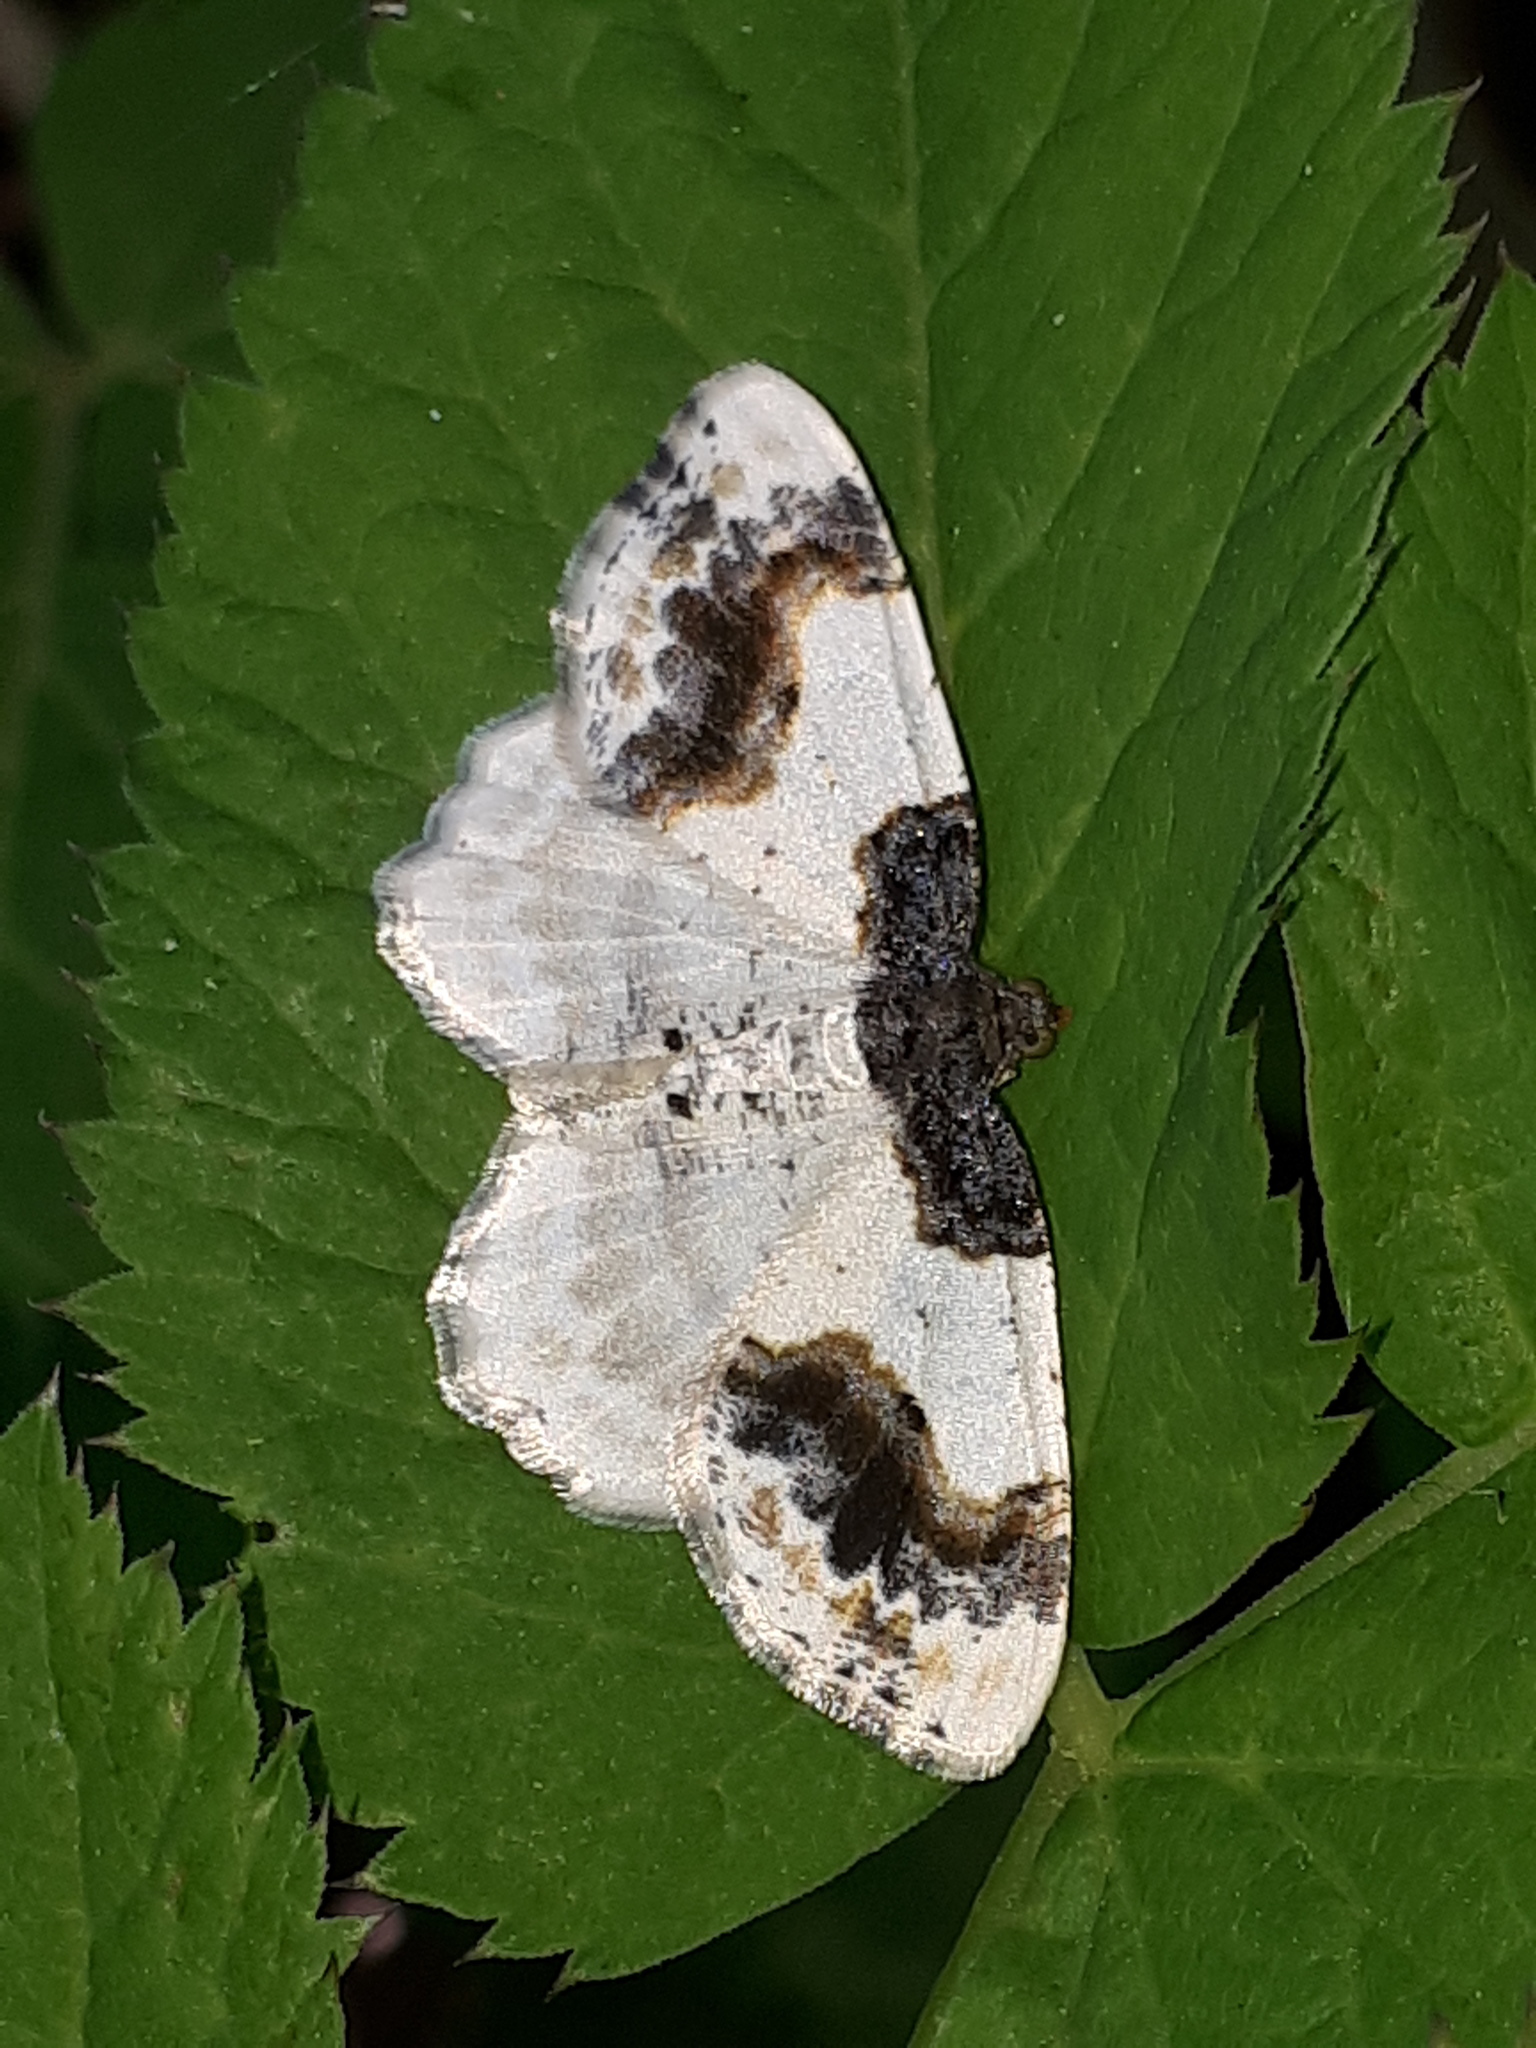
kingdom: Animalia
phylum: Arthropoda
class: Insecta
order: Lepidoptera
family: Geometridae
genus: Ligdia
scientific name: Ligdia adustata
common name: Scorched carpet
